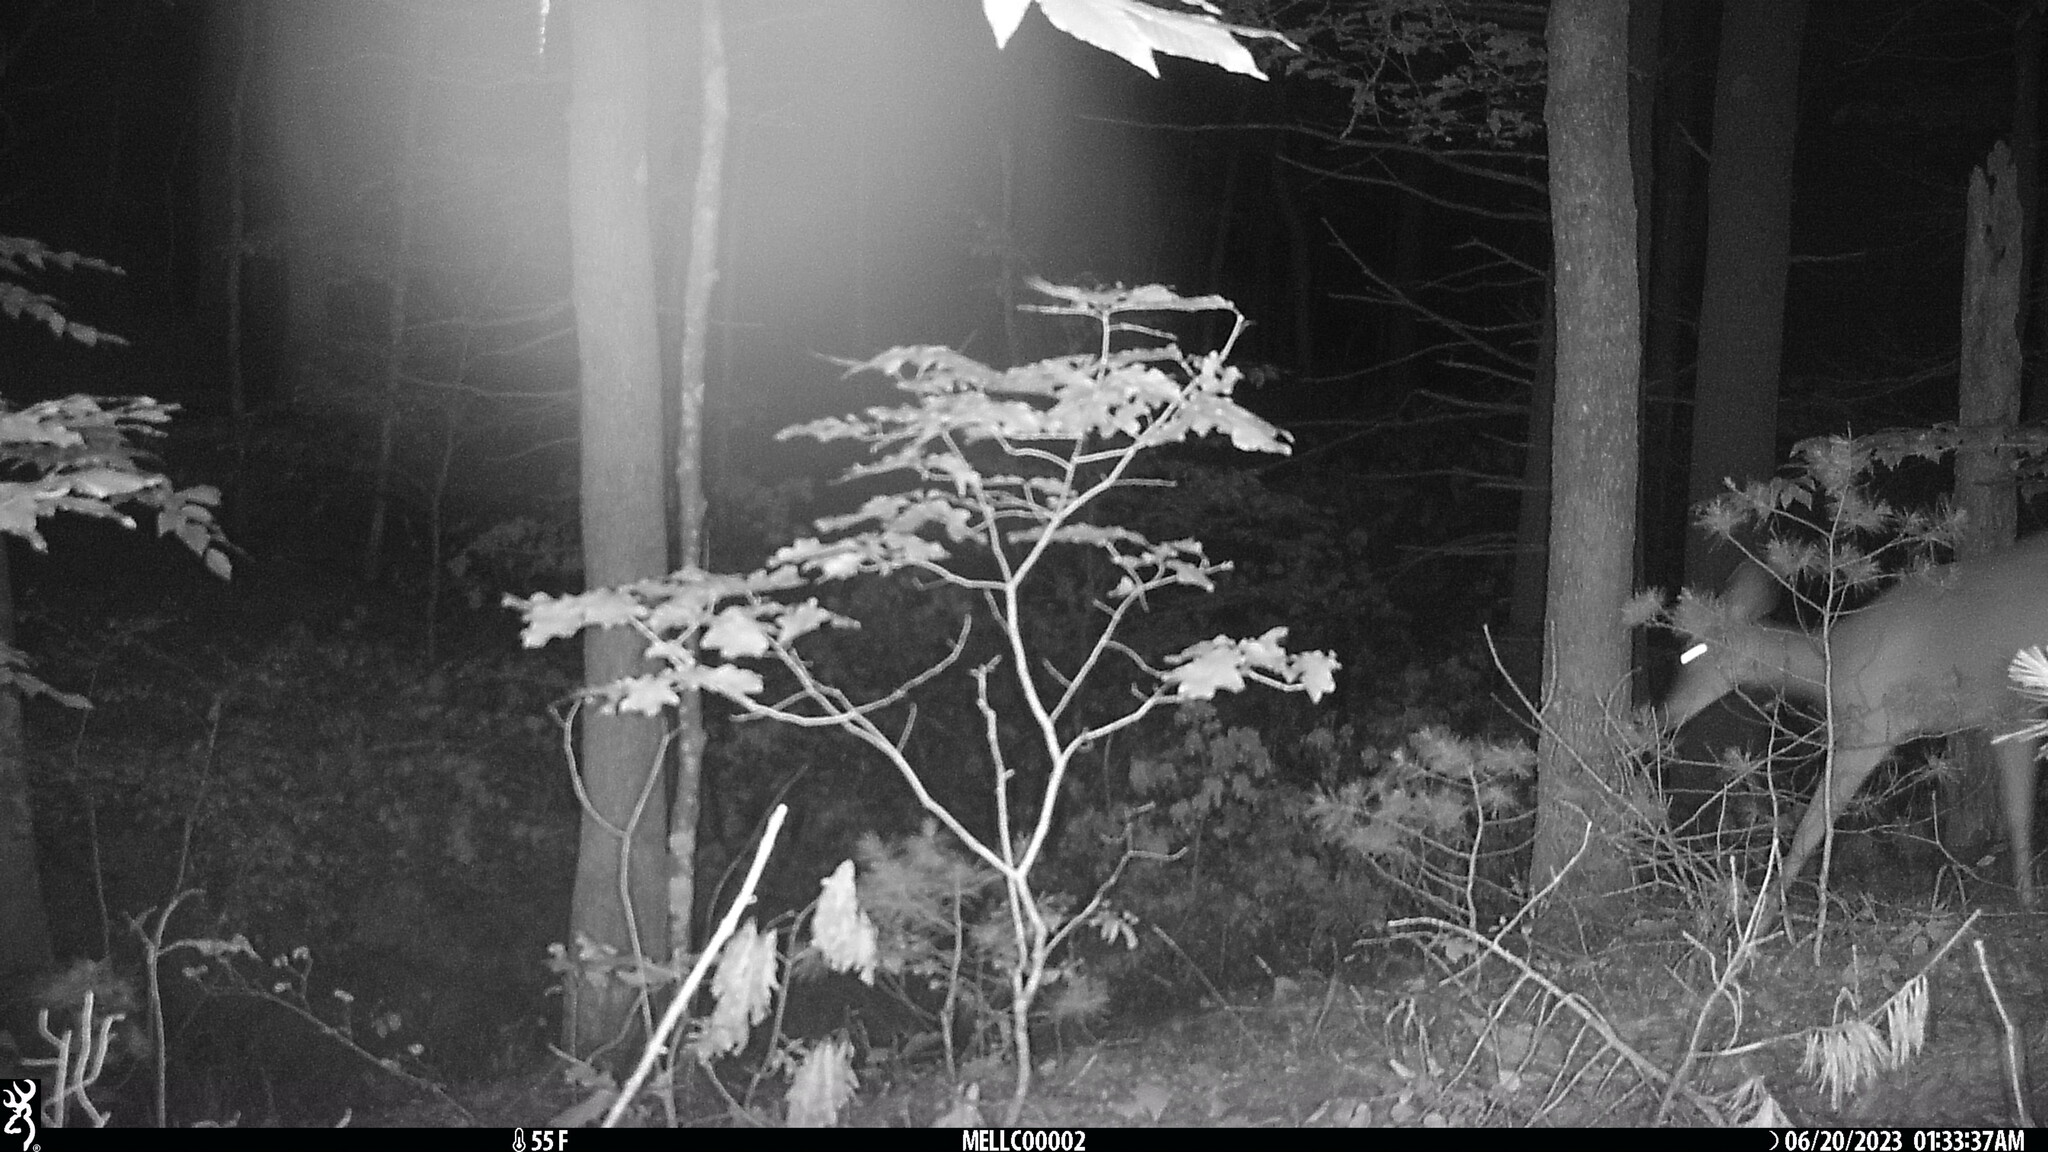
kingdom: Animalia
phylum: Chordata
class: Mammalia
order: Artiodactyla
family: Cervidae
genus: Odocoileus
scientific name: Odocoileus virginianus
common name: White-tailed deer
